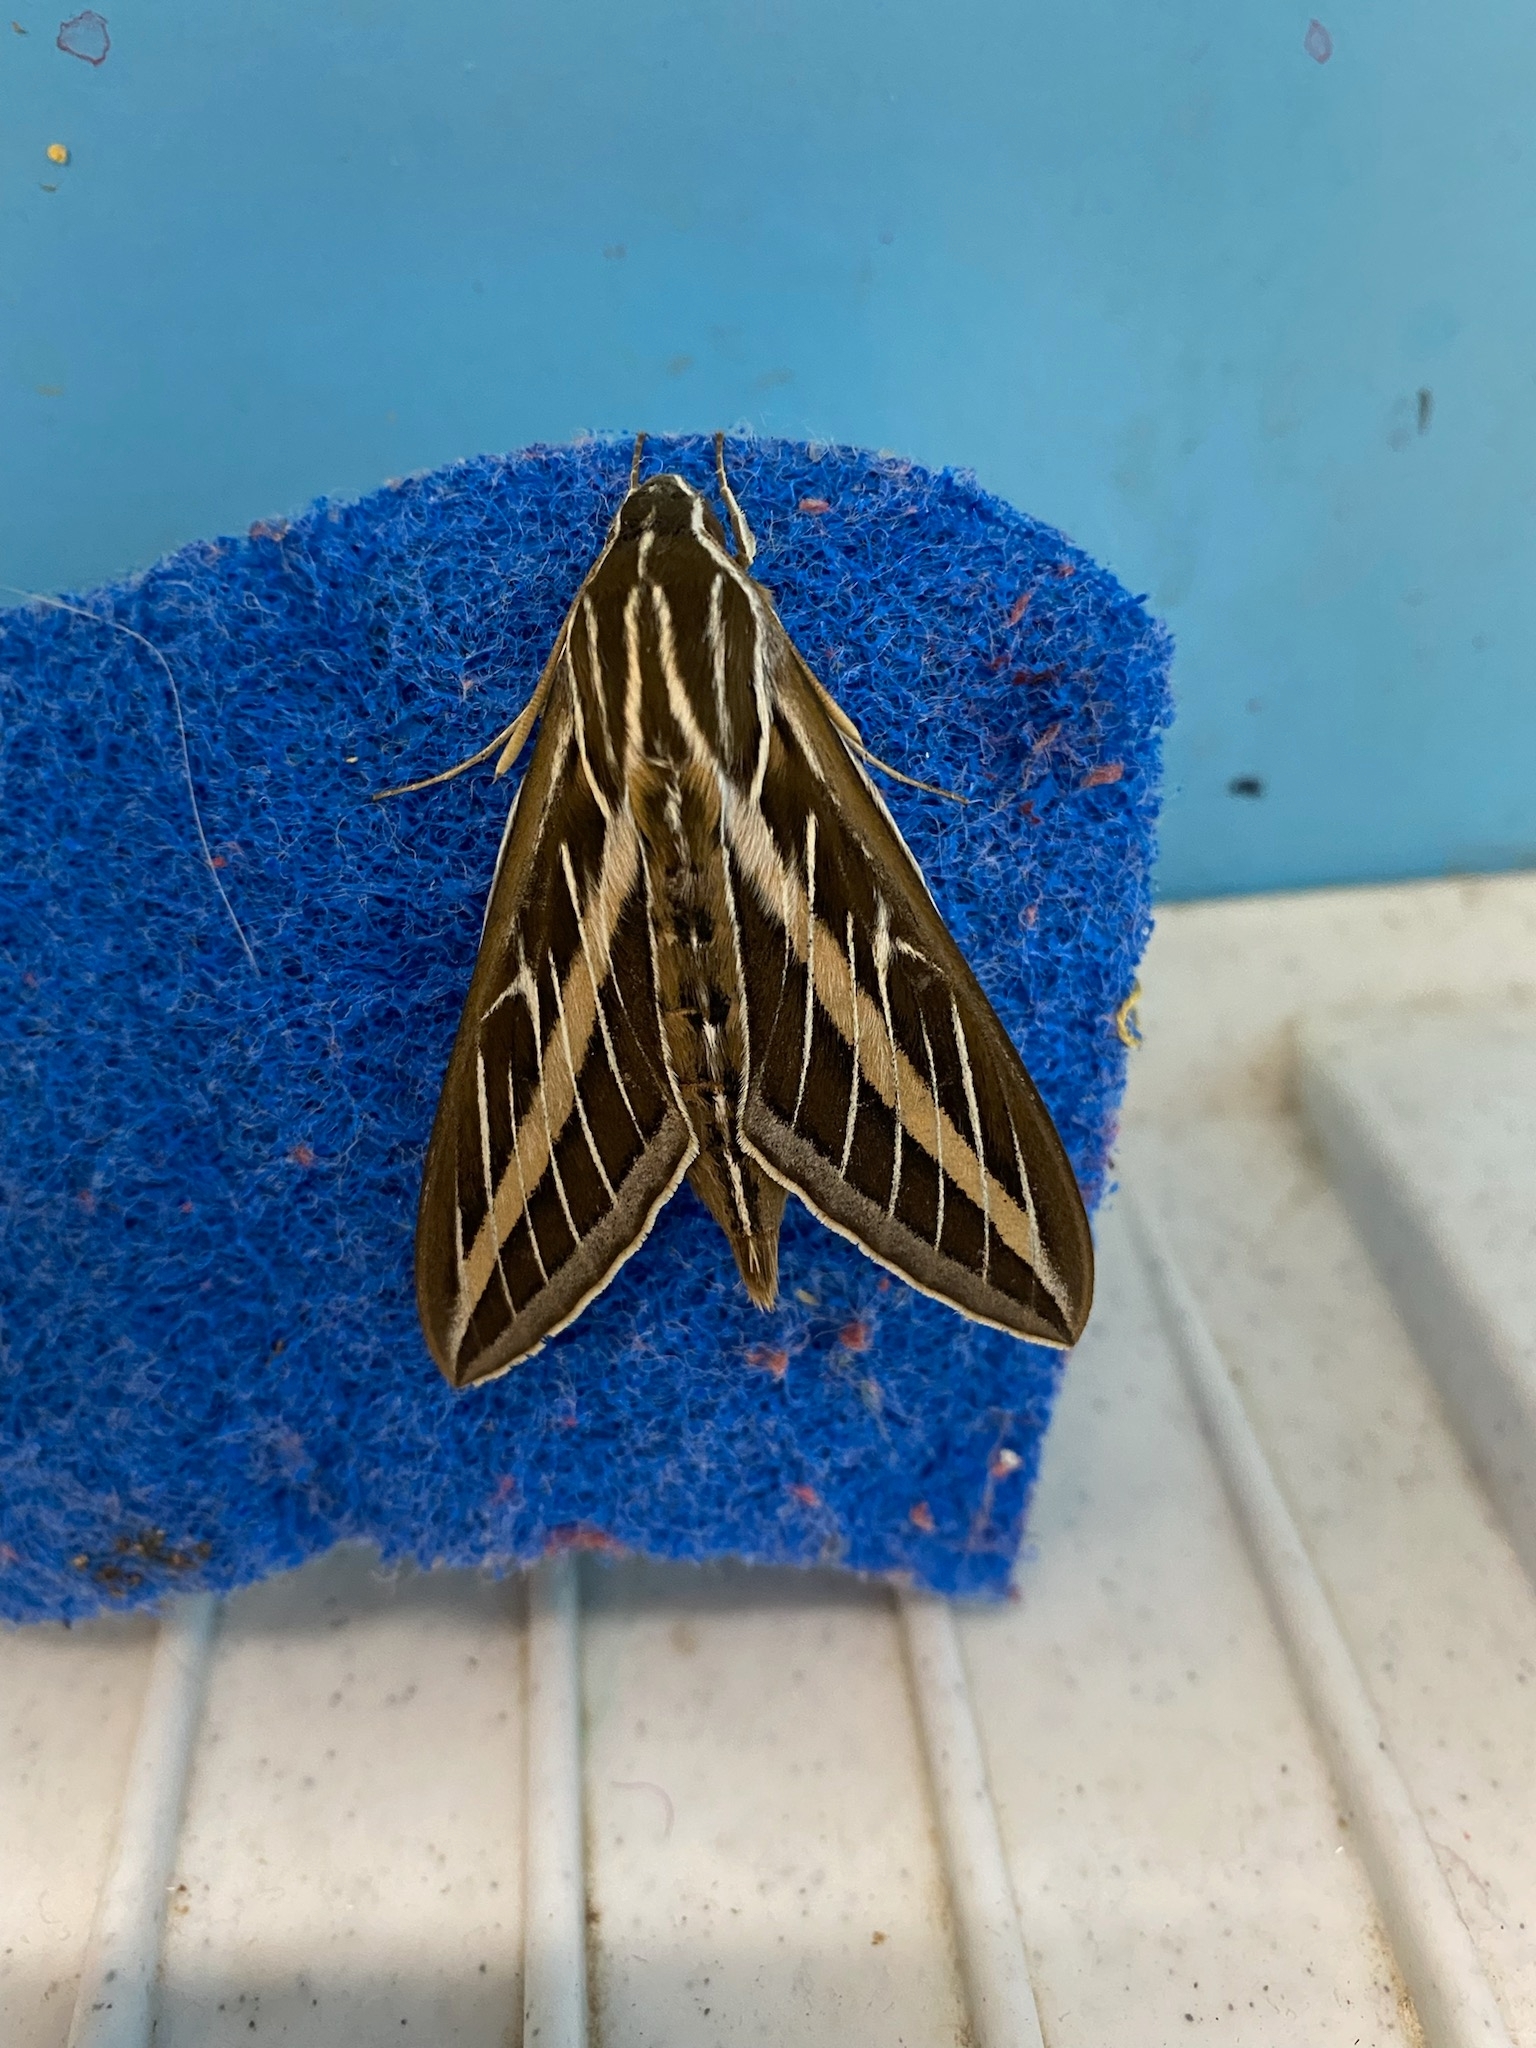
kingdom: Animalia
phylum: Arthropoda
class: Insecta
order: Lepidoptera
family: Sphingidae
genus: Hyles
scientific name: Hyles lineata
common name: White-lined sphinx
